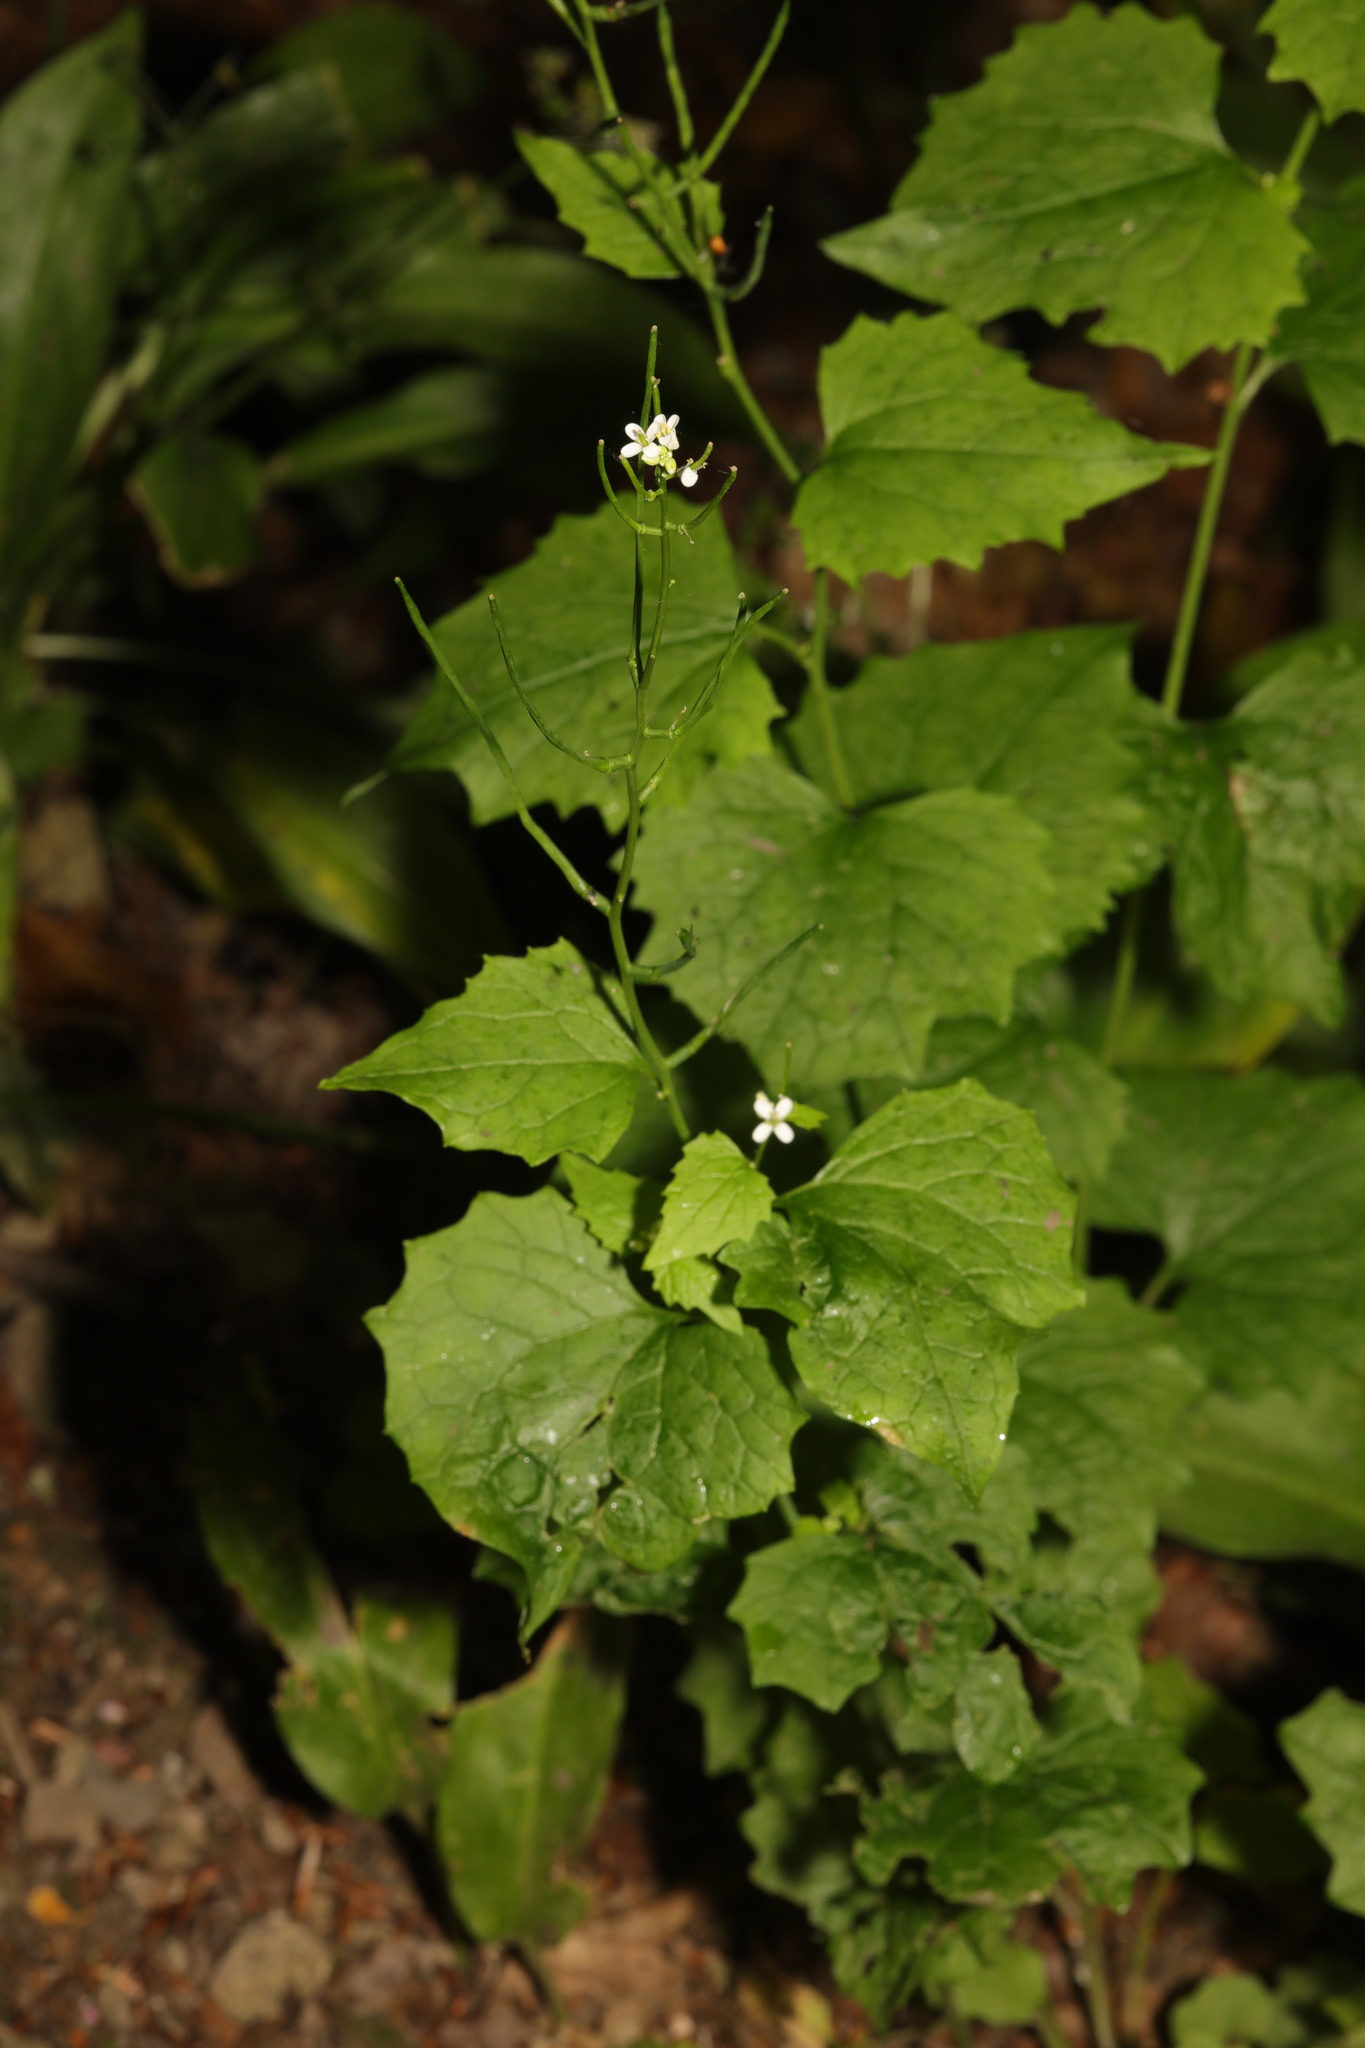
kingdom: Plantae
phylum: Tracheophyta
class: Magnoliopsida
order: Brassicales
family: Brassicaceae
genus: Alliaria
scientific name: Alliaria petiolata
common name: Garlic mustard
